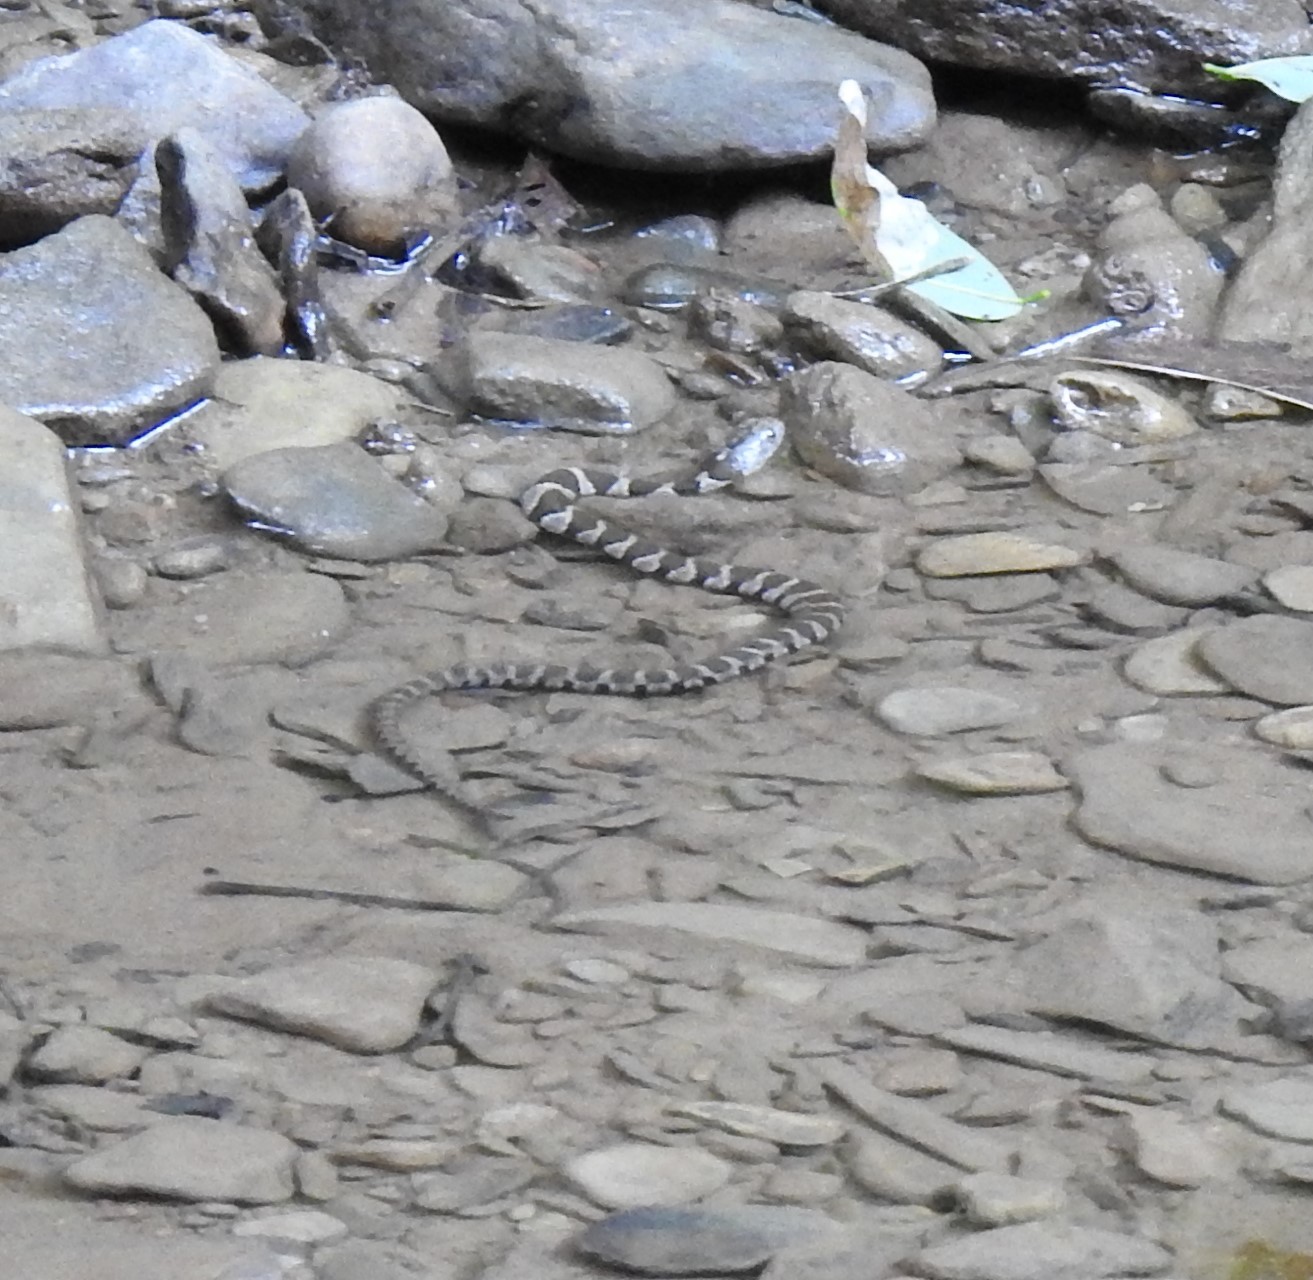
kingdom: Animalia
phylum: Chordata
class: Squamata
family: Colubridae
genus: Nerodia
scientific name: Nerodia sipedon
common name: Northern water snake
